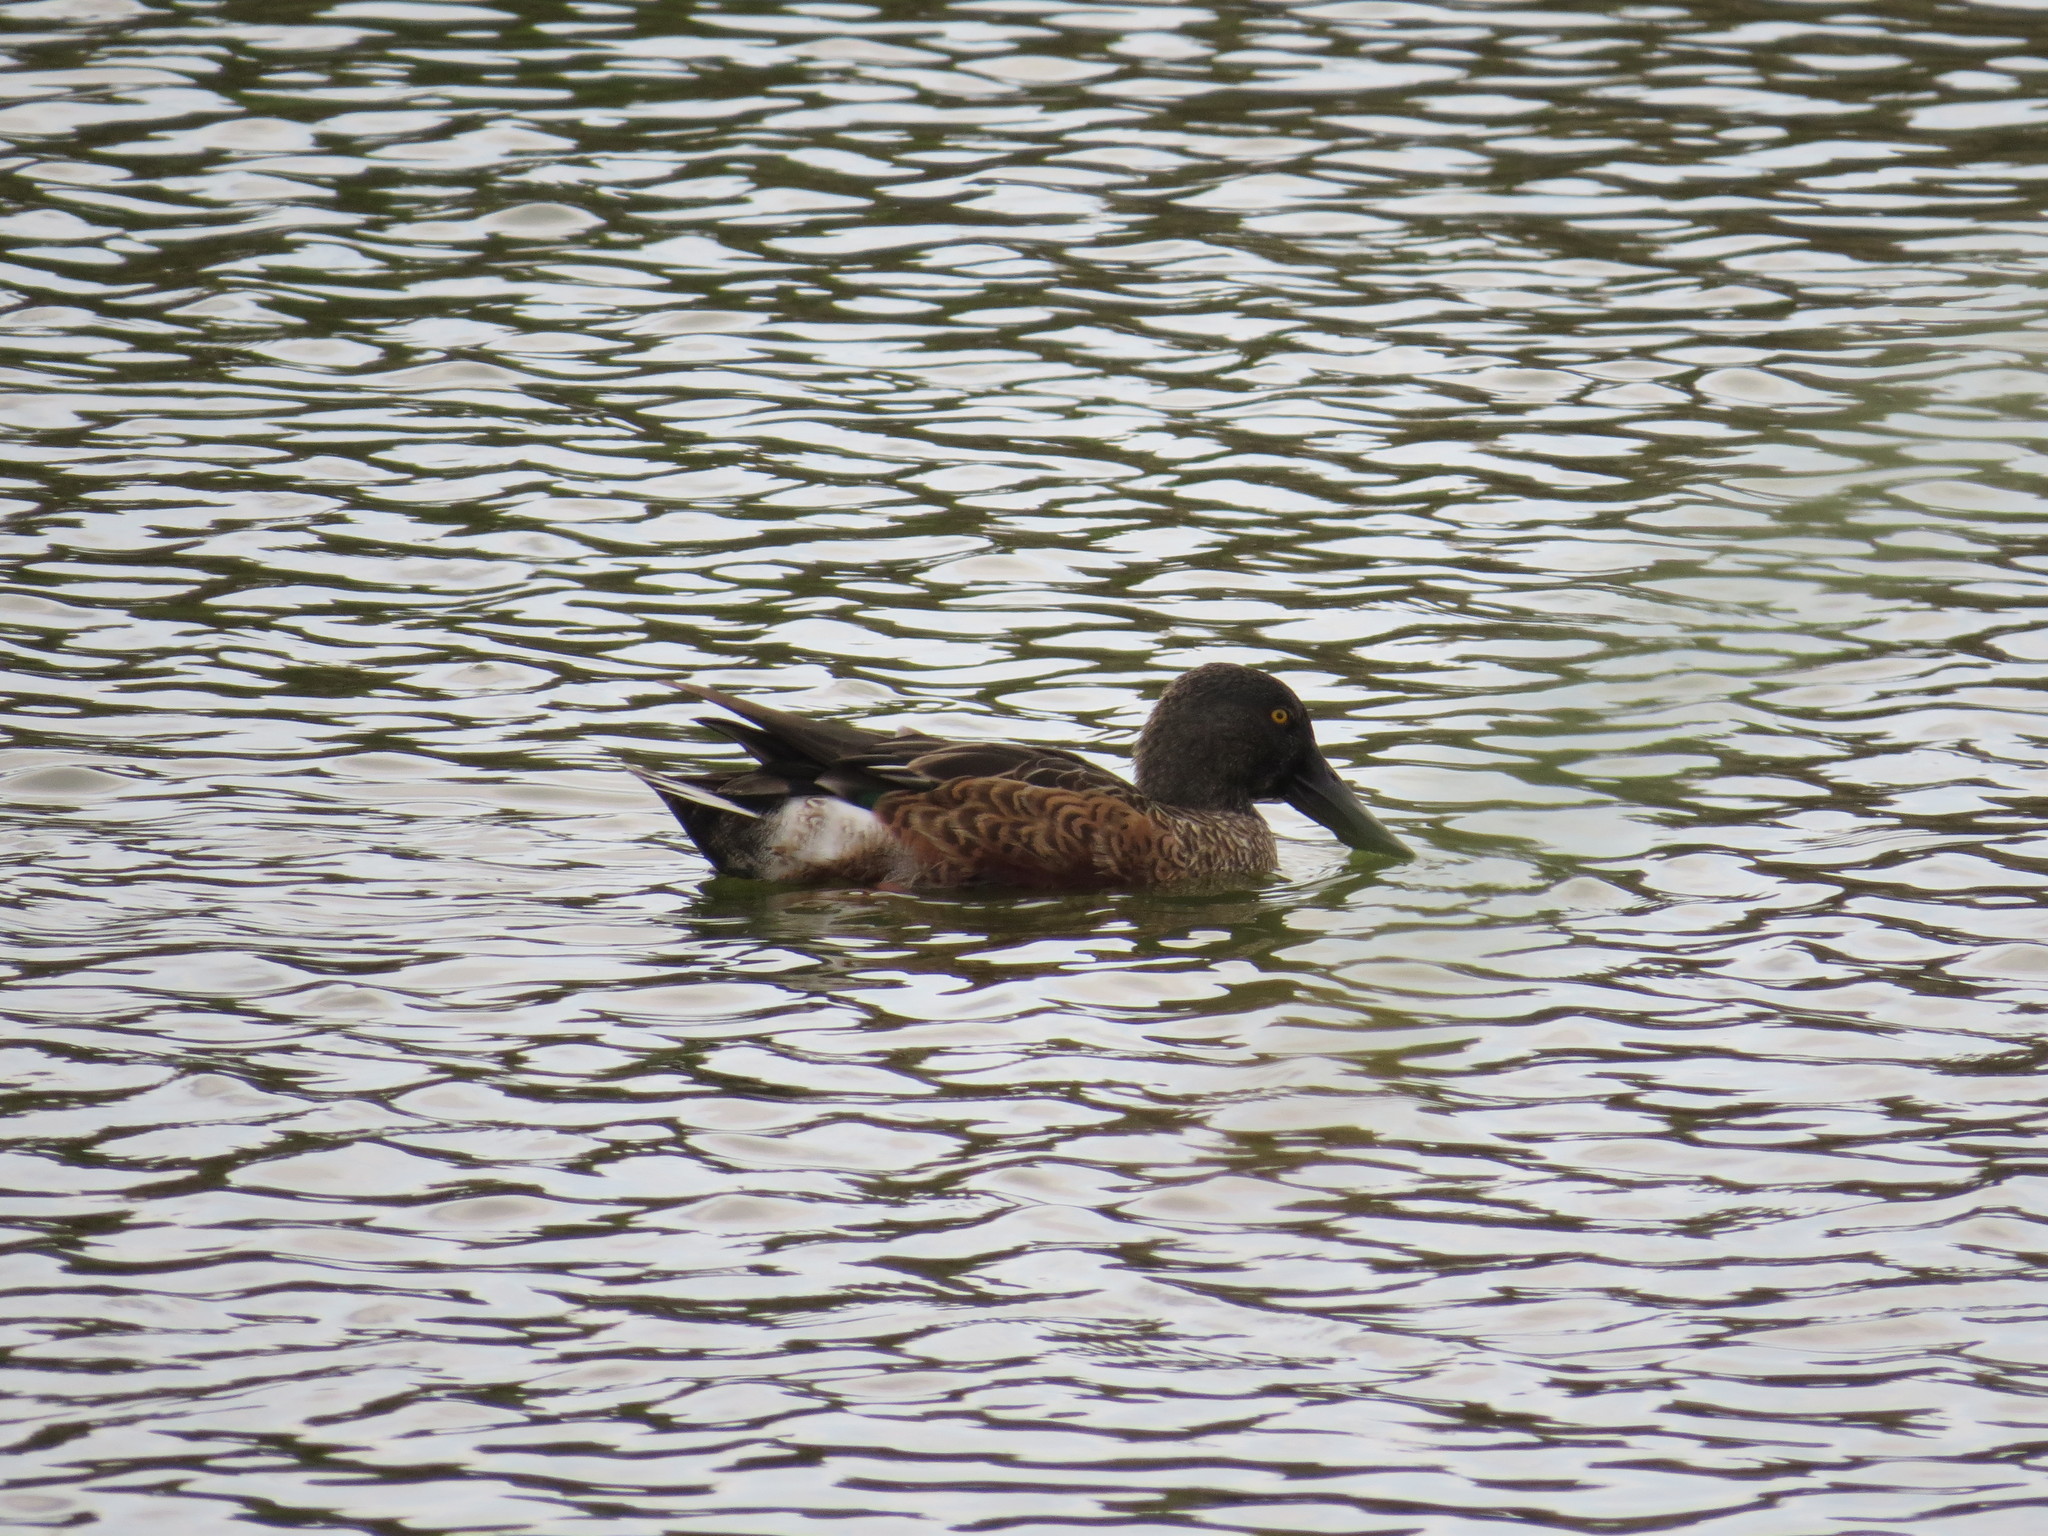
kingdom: Animalia
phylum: Chordata
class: Aves
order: Anseriformes
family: Anatidae
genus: Spatula
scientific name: Spatula clypeata
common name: Northern shoveler
